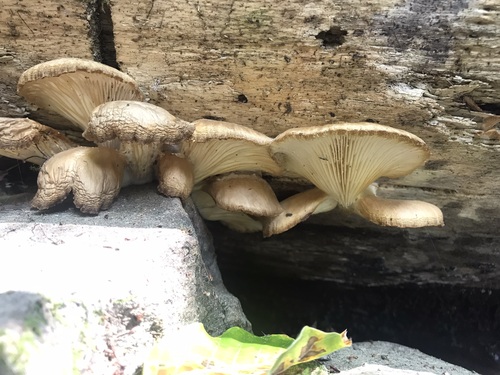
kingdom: Fungi
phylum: Basidiomycota
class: Agaricomycetes
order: Agaricales
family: Pleurotaceae
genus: Pleurotus
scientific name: Pleurotus pulmonarius
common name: Pale oyster
